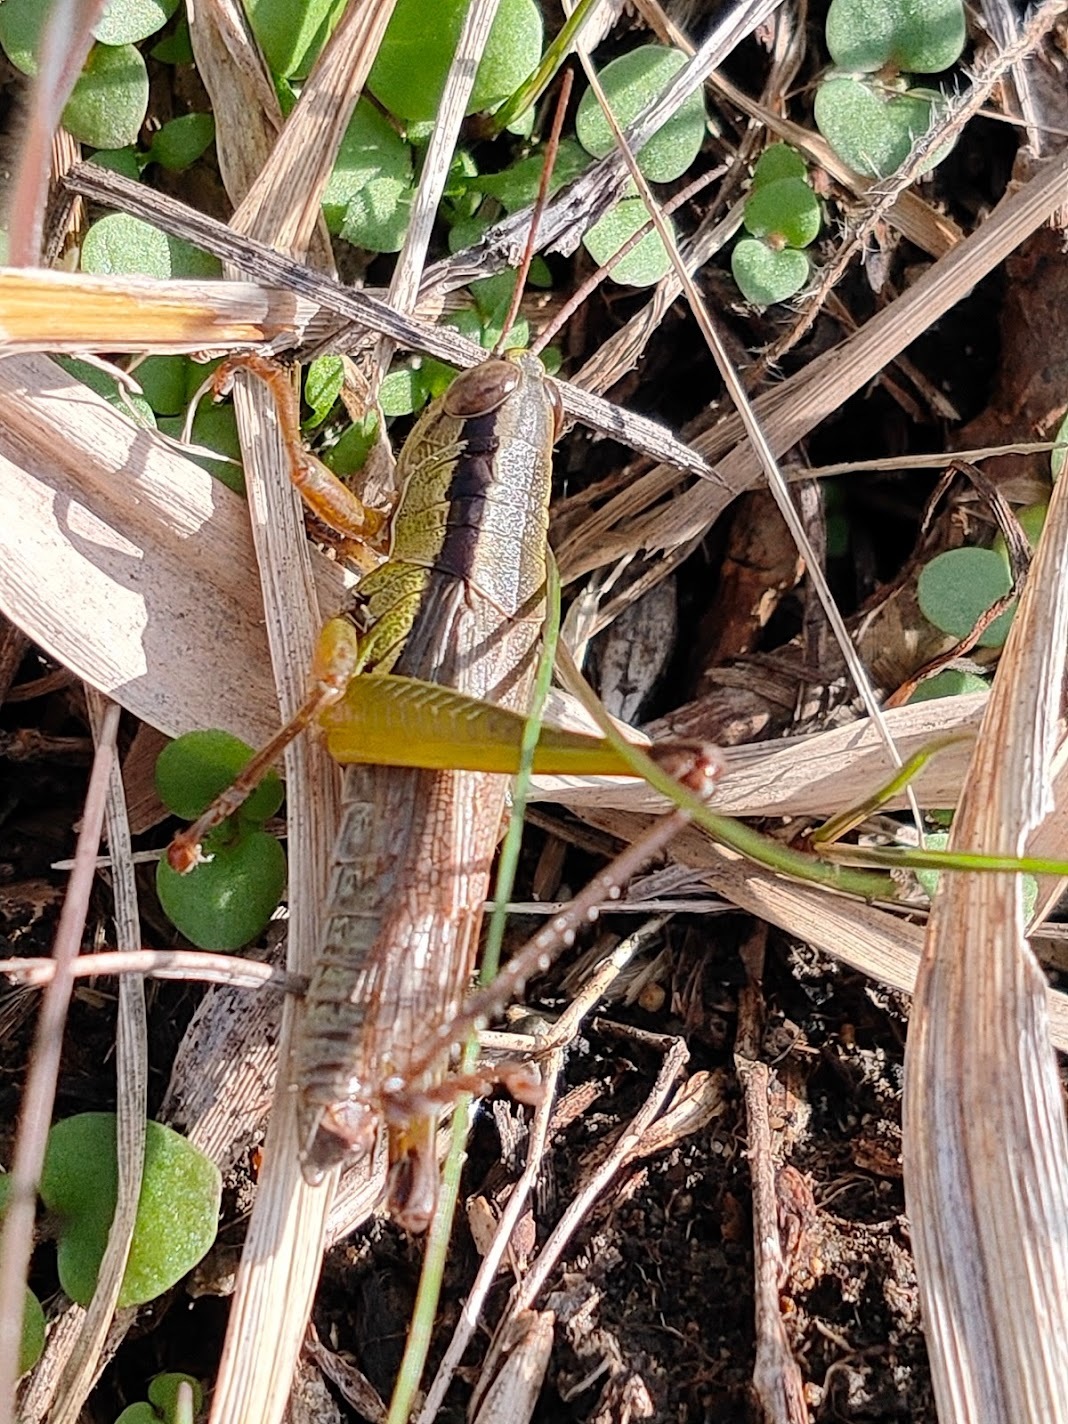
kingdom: Animalia
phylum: Arthropoda
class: Insecta
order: Orthoptera
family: Acrididae
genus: Oxya
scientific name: Oxya yezoensis
